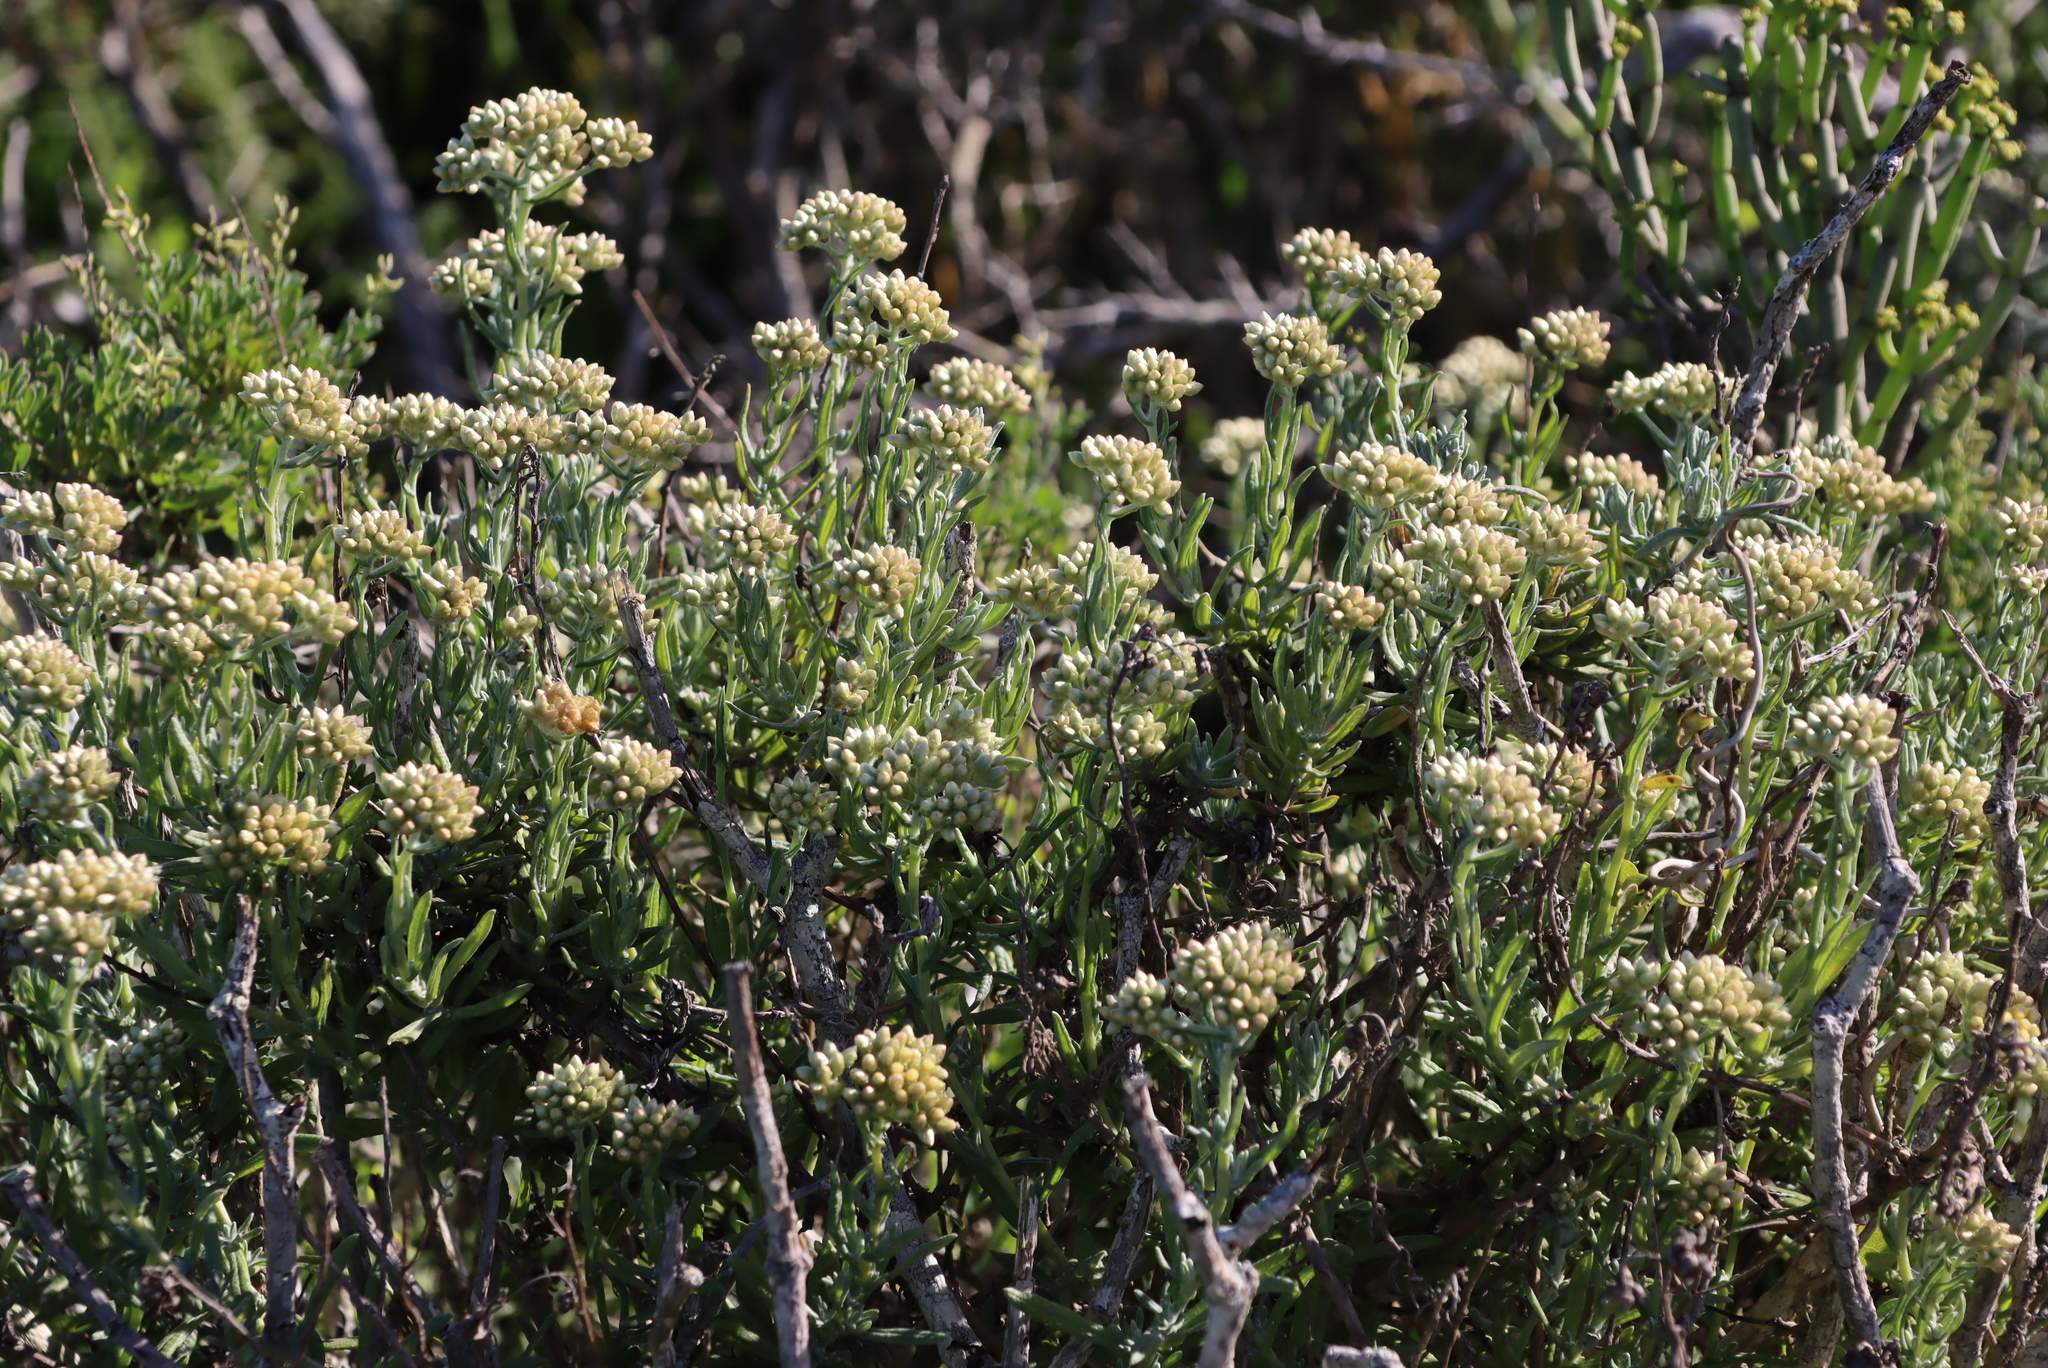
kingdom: Plantae
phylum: Tracheophyta
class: Magnoliopsida
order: Asterales
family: Asteraceae
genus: Helichrysum
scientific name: Helichrysum revolutum
